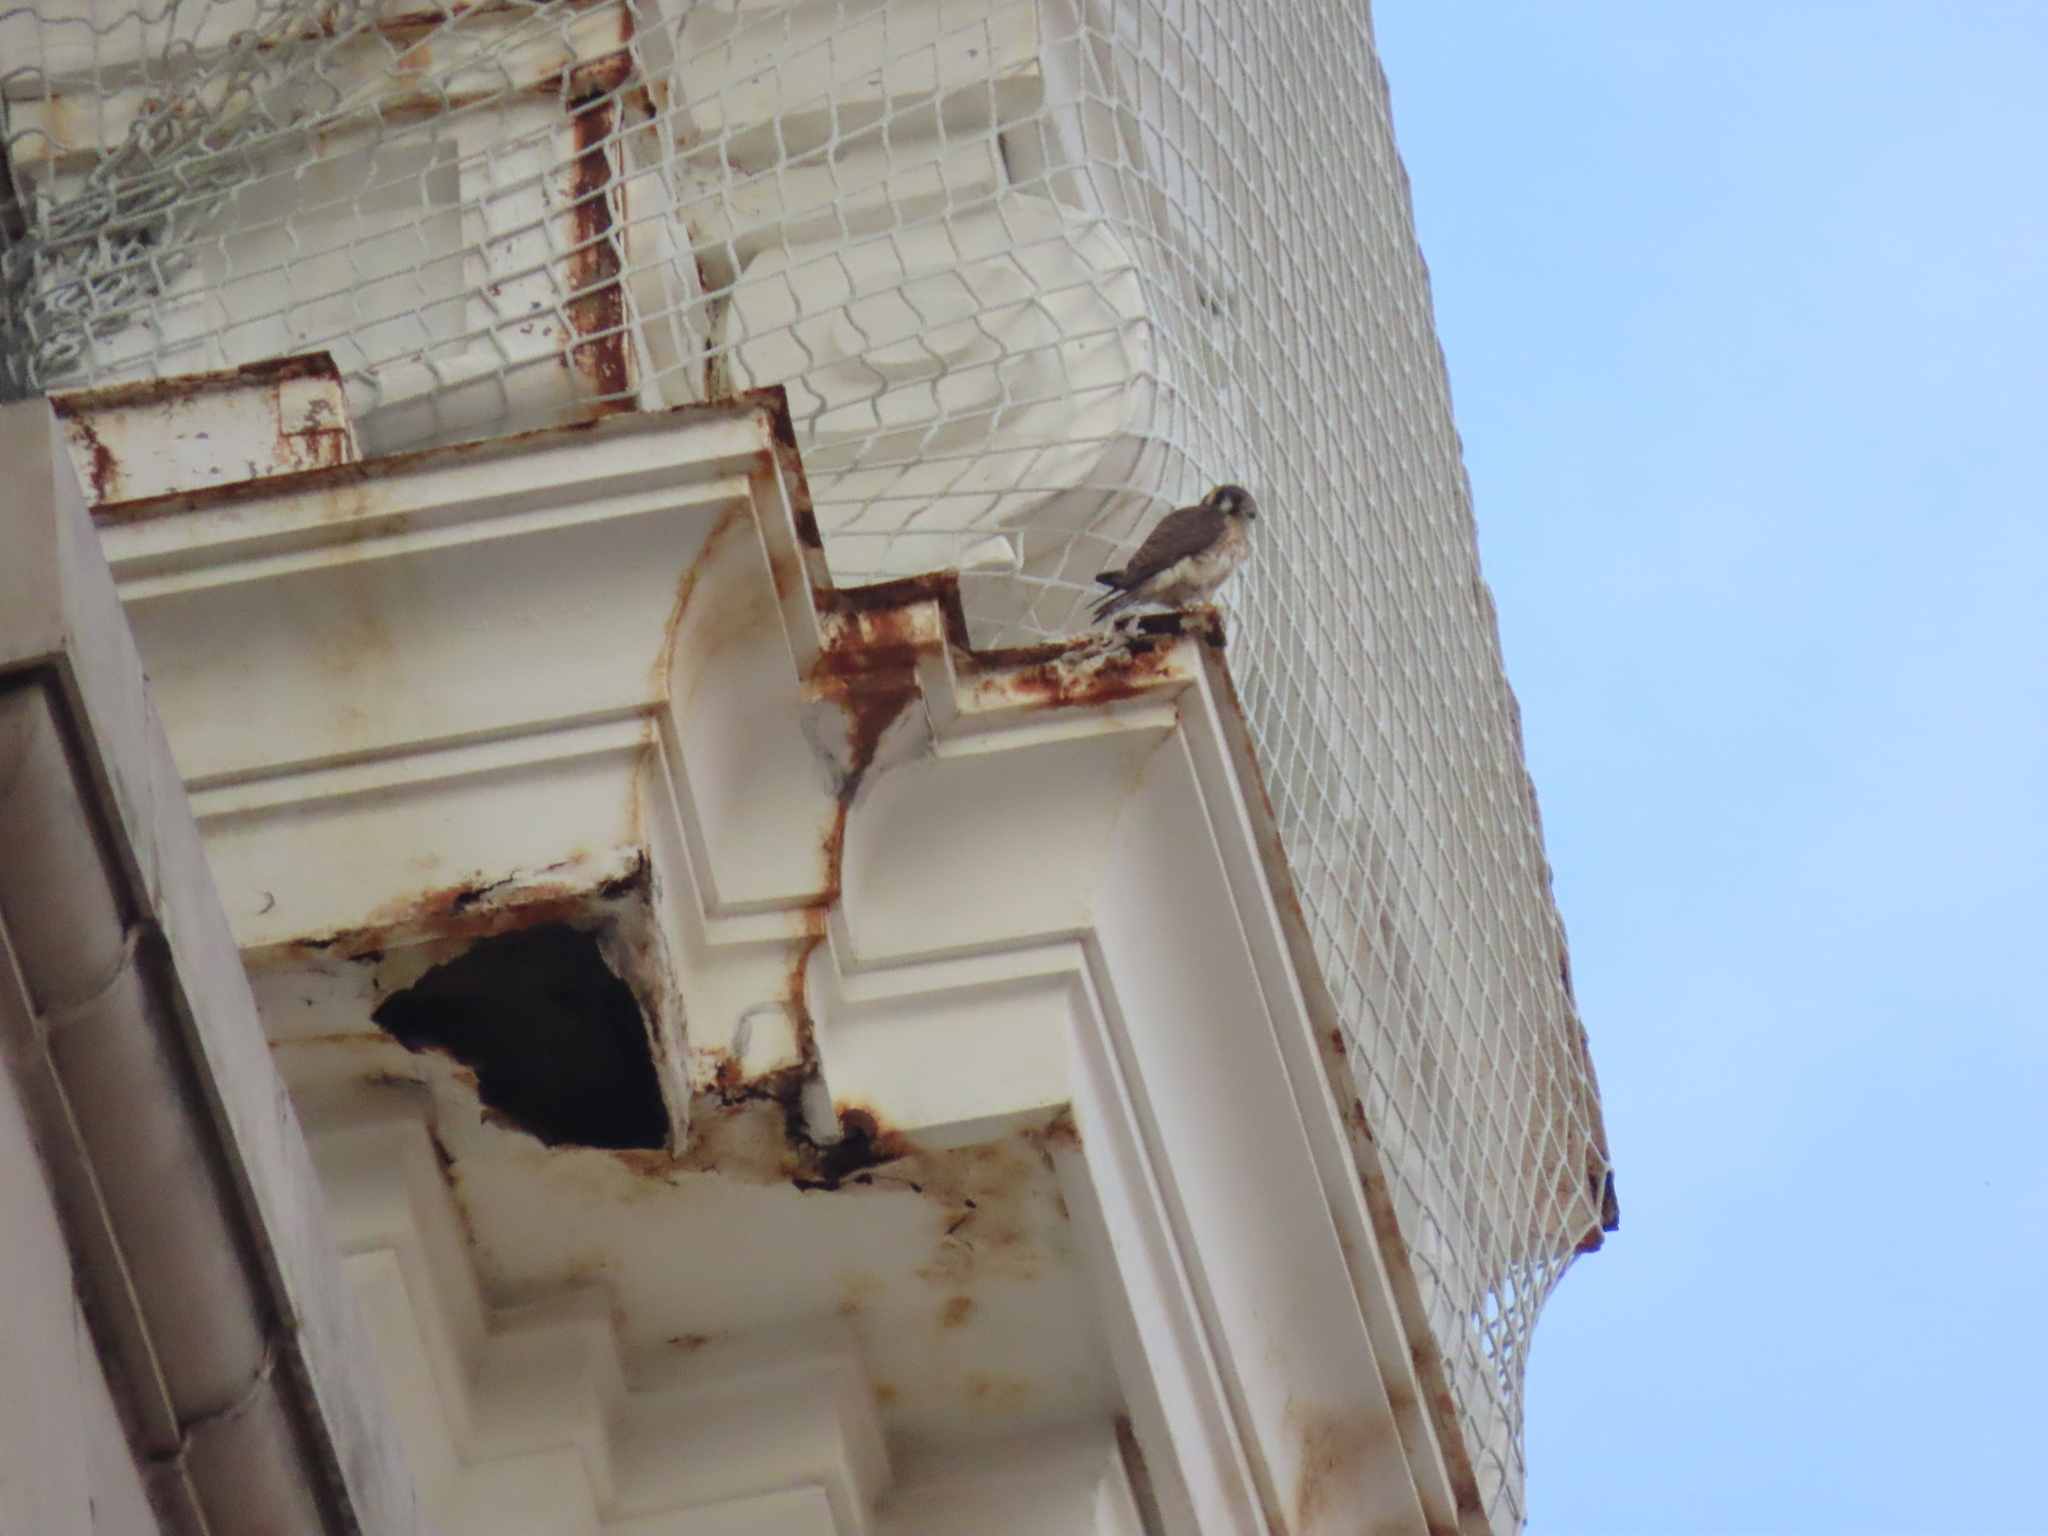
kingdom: Animalia
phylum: Chordata
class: Aves
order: Falconiformes
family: Falconidae
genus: Falco
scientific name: Falco sparverius
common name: American kestrel
